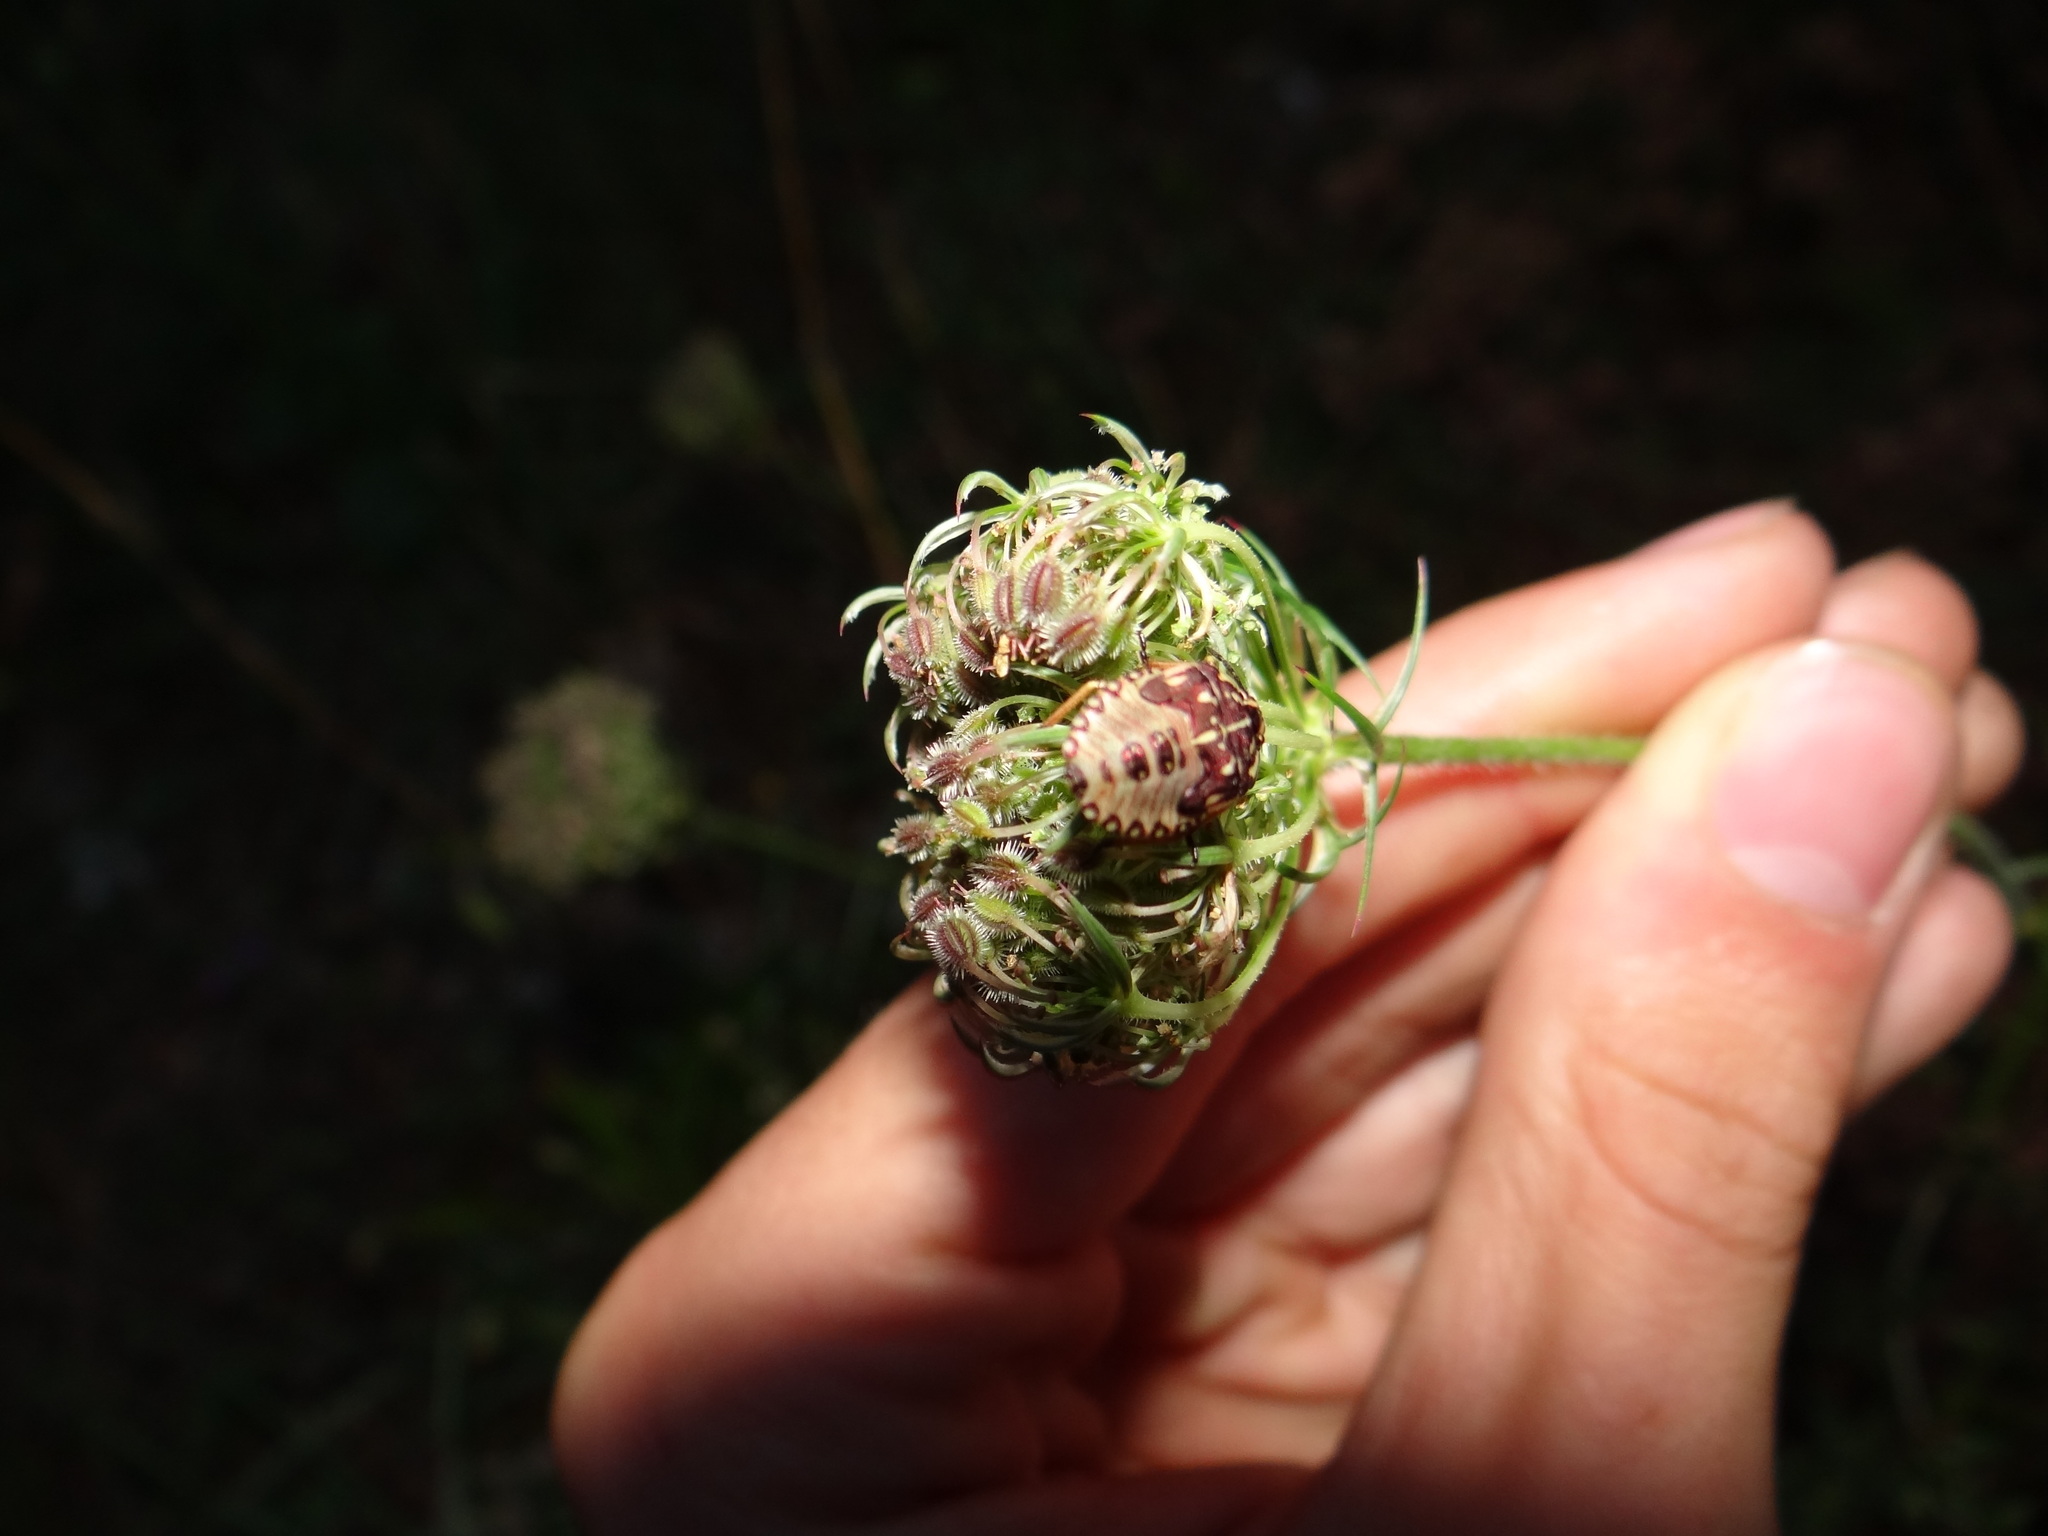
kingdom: Animalia
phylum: Arthropoda
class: Insecta
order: Hemiptera
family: Pentatomidae
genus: Carpocoris
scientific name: Carpocoris purpureipennis
